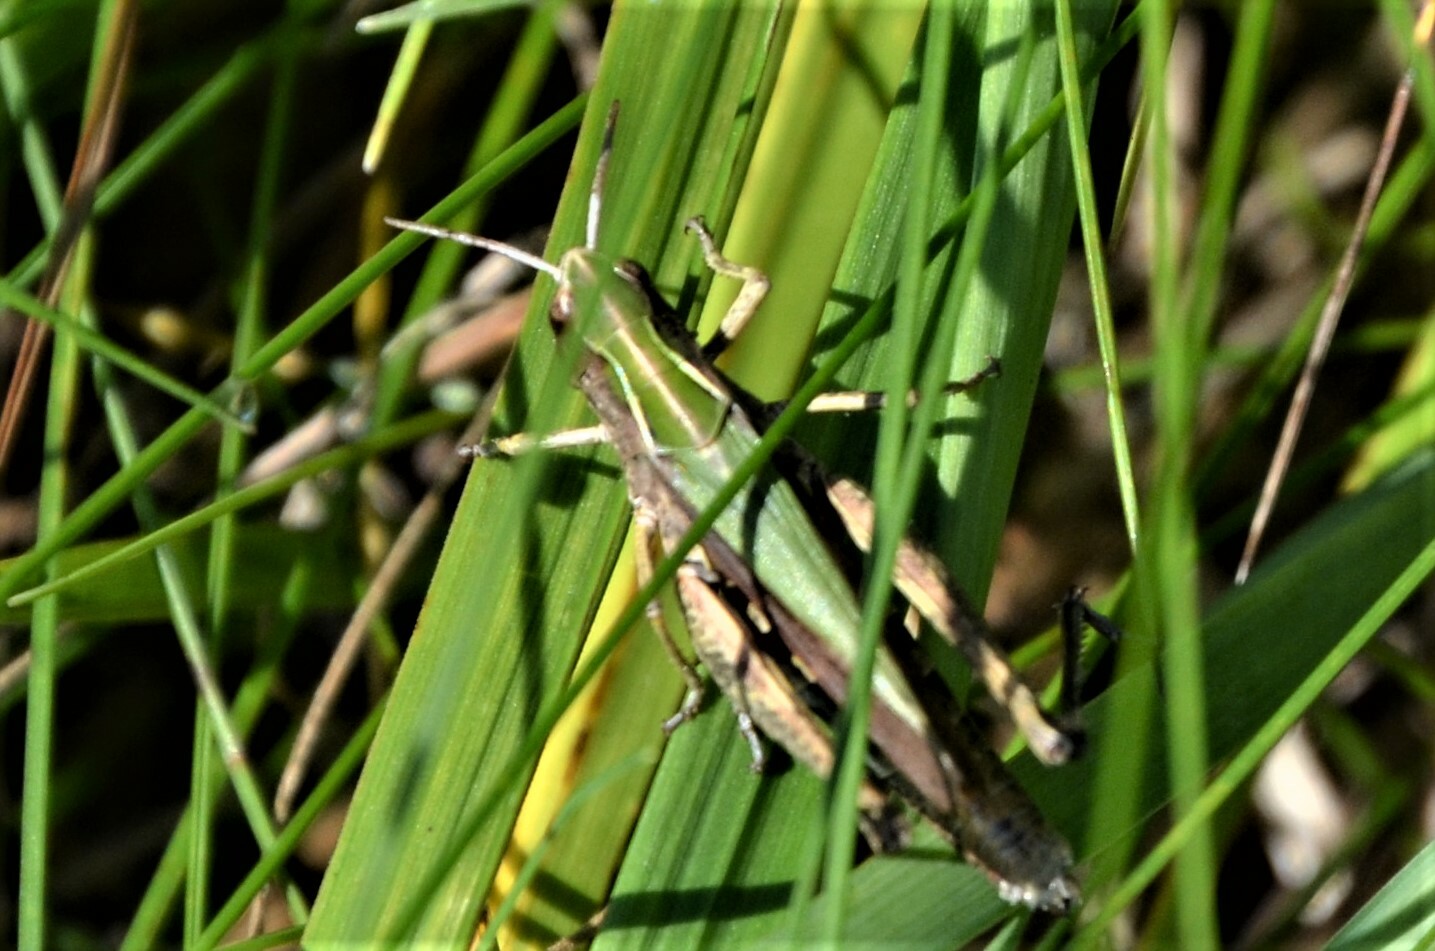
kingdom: Animalia
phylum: Arthropoda
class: Insecta
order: Orthoptera
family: Acrididae
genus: Omocestus
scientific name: Omocestus viridulus
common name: Common green grasshopper
